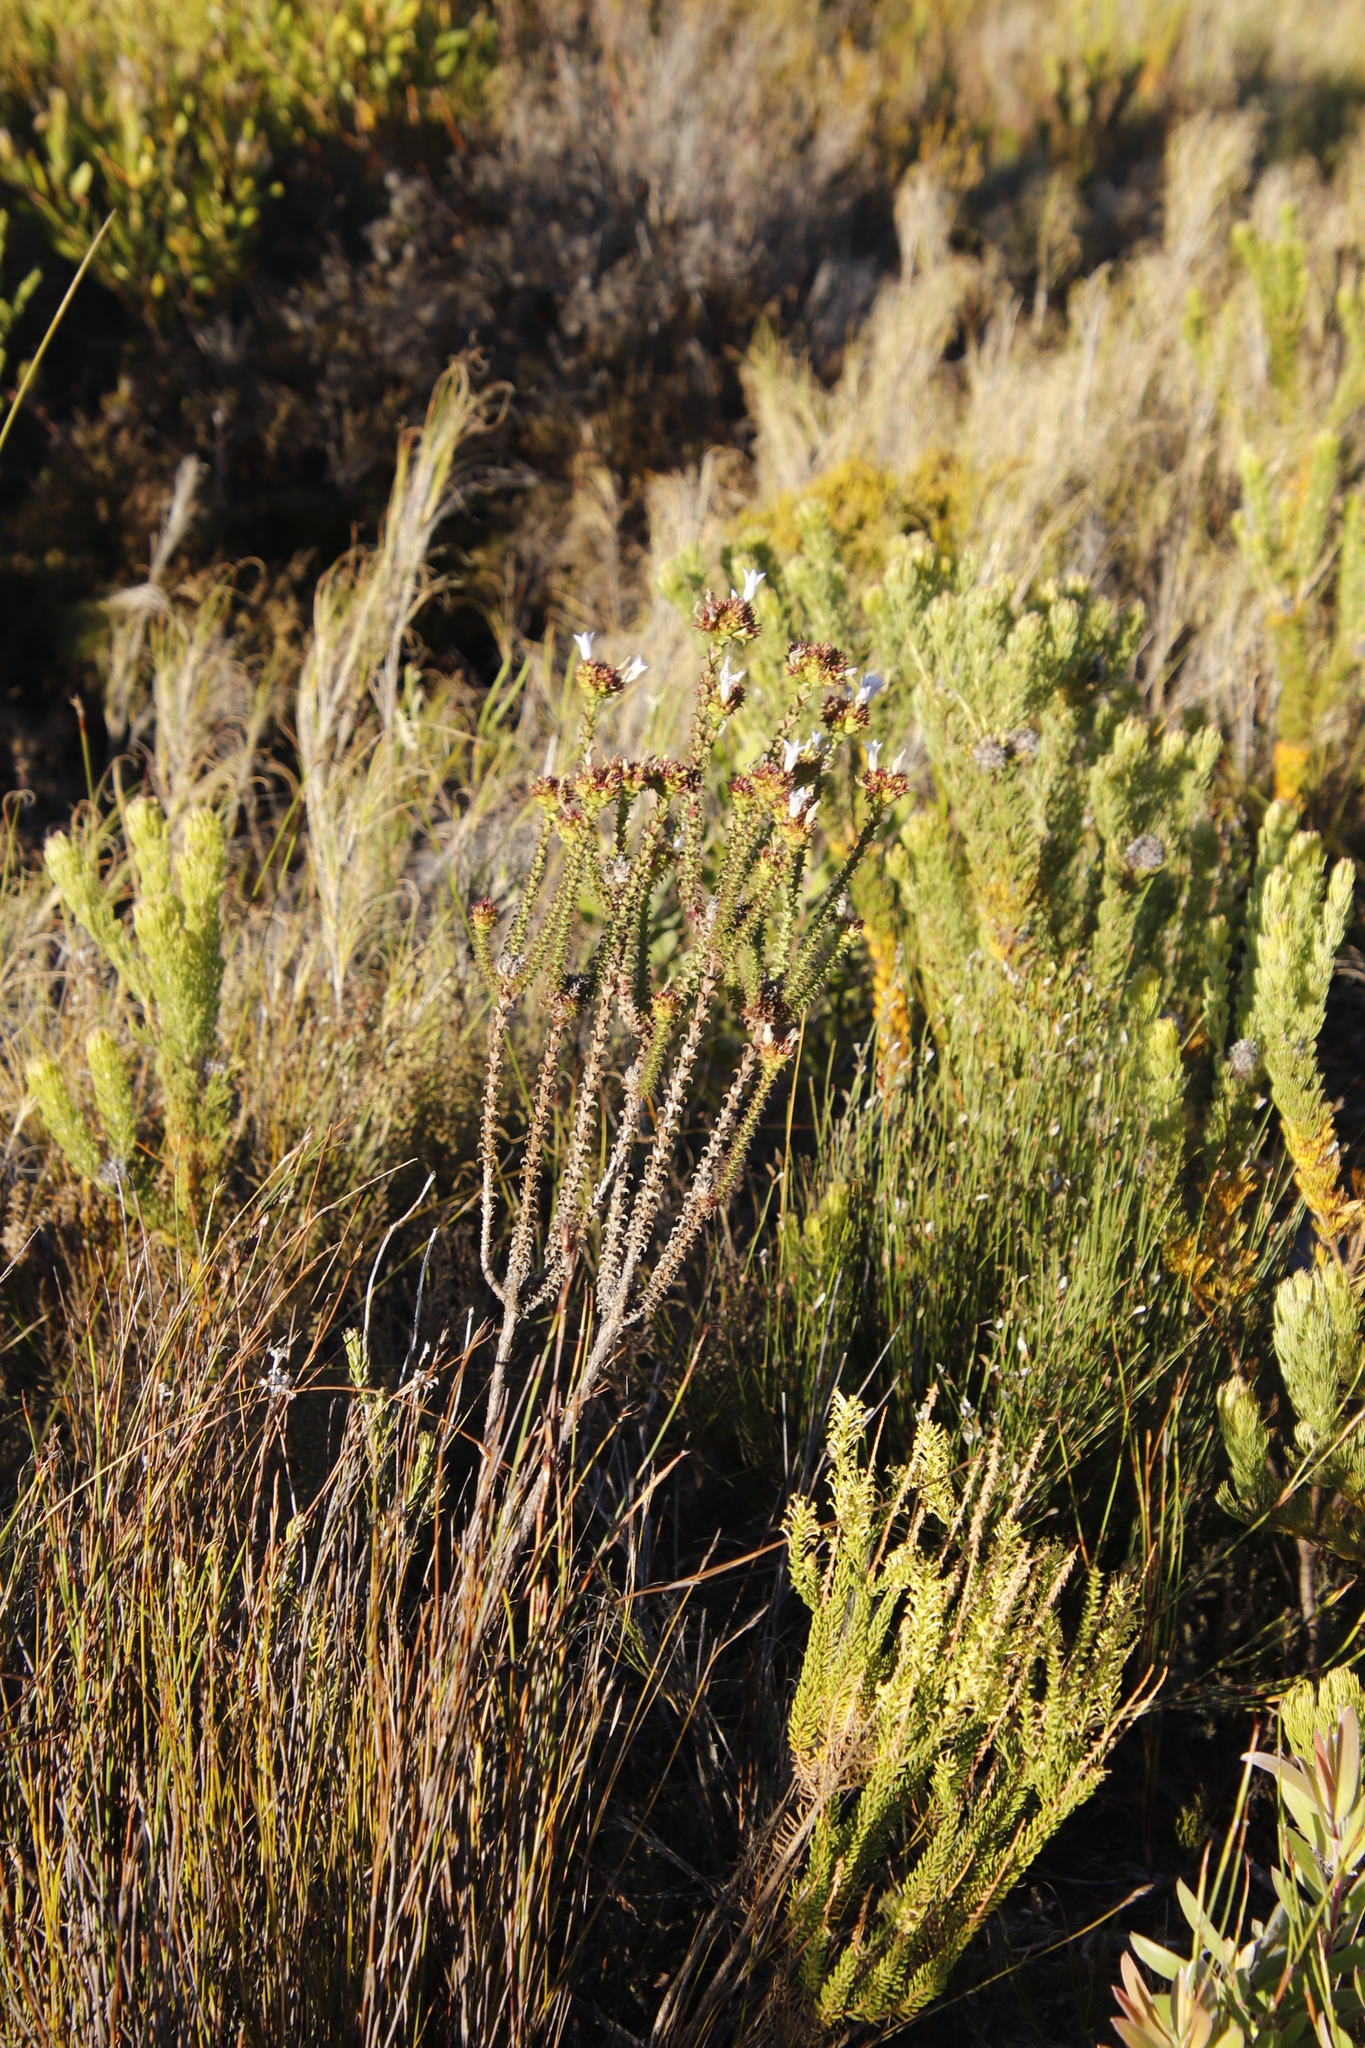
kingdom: Plantae
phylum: Tracheophyta
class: Magnoliopsida
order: Asterales
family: Campanulaceae
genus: Roella
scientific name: Roella amplexicaulis
